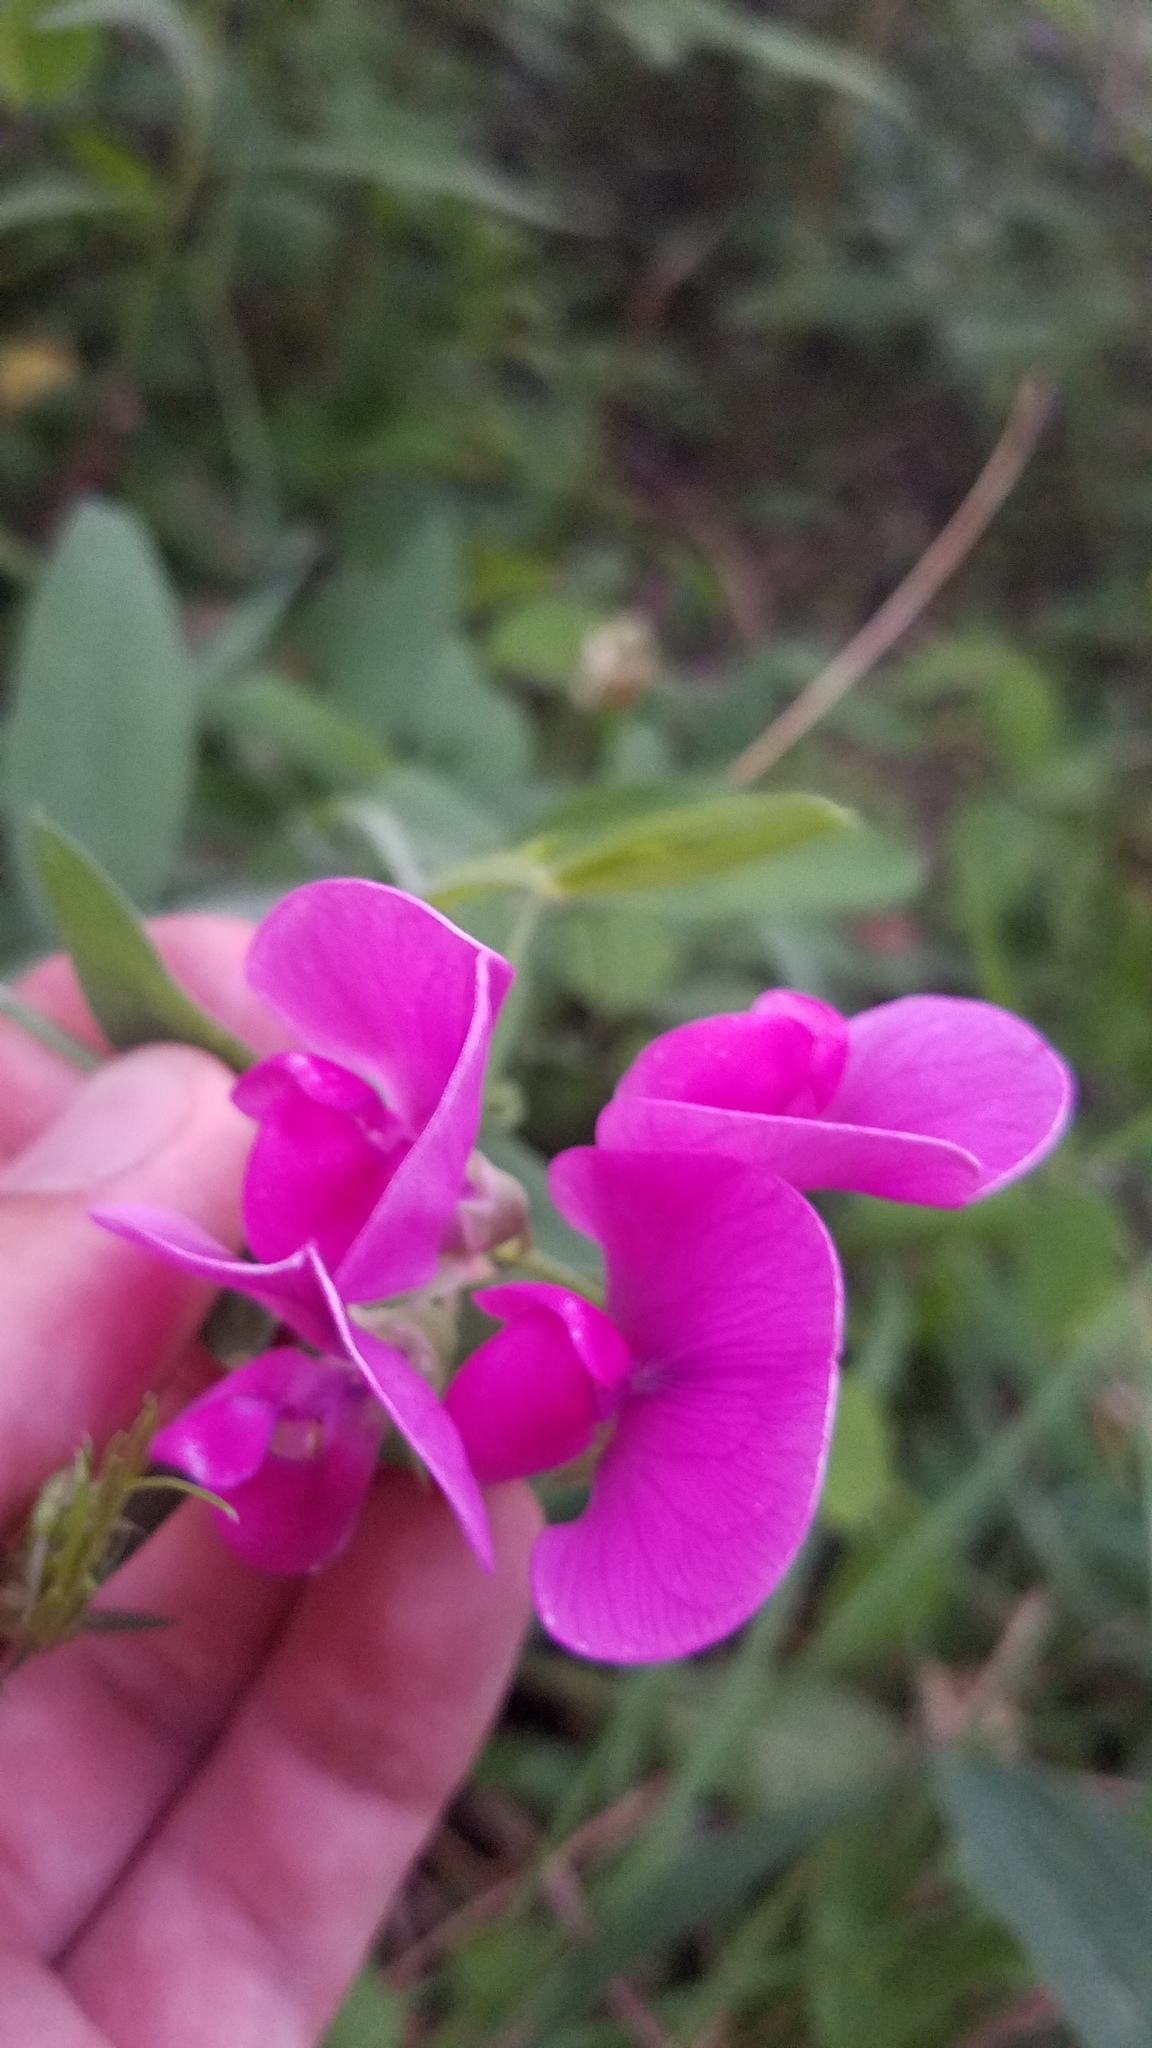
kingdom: Plantae
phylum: Tracheophyta
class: Magnoliopsida
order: Fabales
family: Fabaceae
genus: Lathyrus
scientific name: Lathyrus latifolius
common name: Perennial pea
